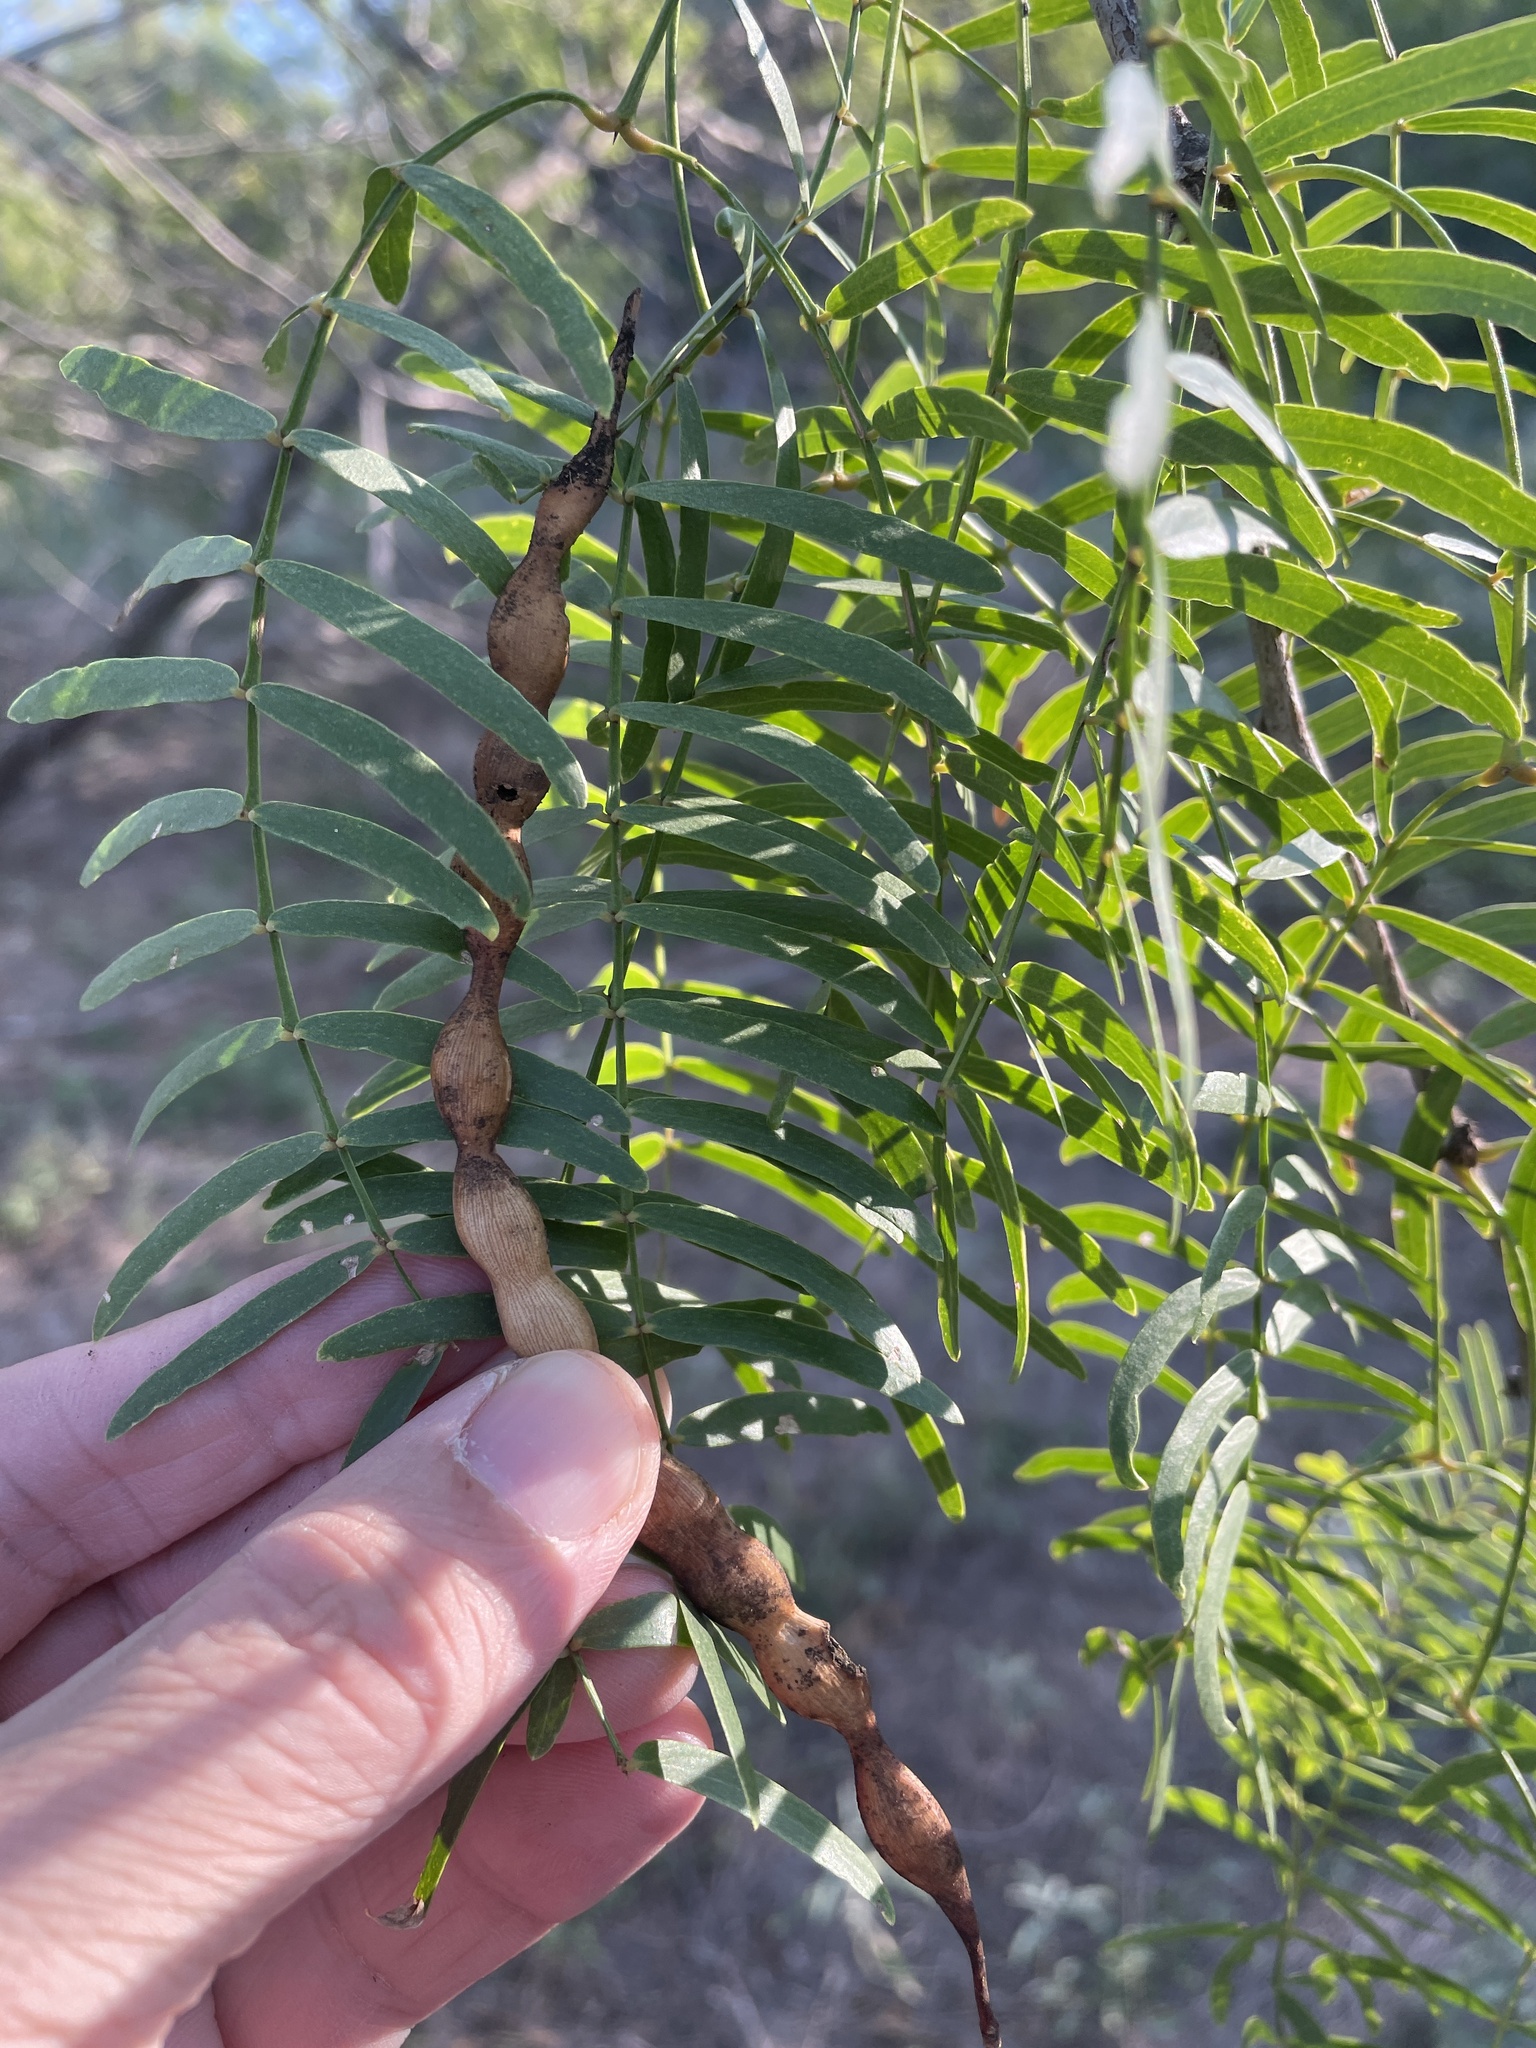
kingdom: Plantae
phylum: Tracheophyta
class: Magnoliopsida
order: Fabales
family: Fabaceae
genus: Prosopis
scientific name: Prosopis glandulosa
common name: Honey mesquite
